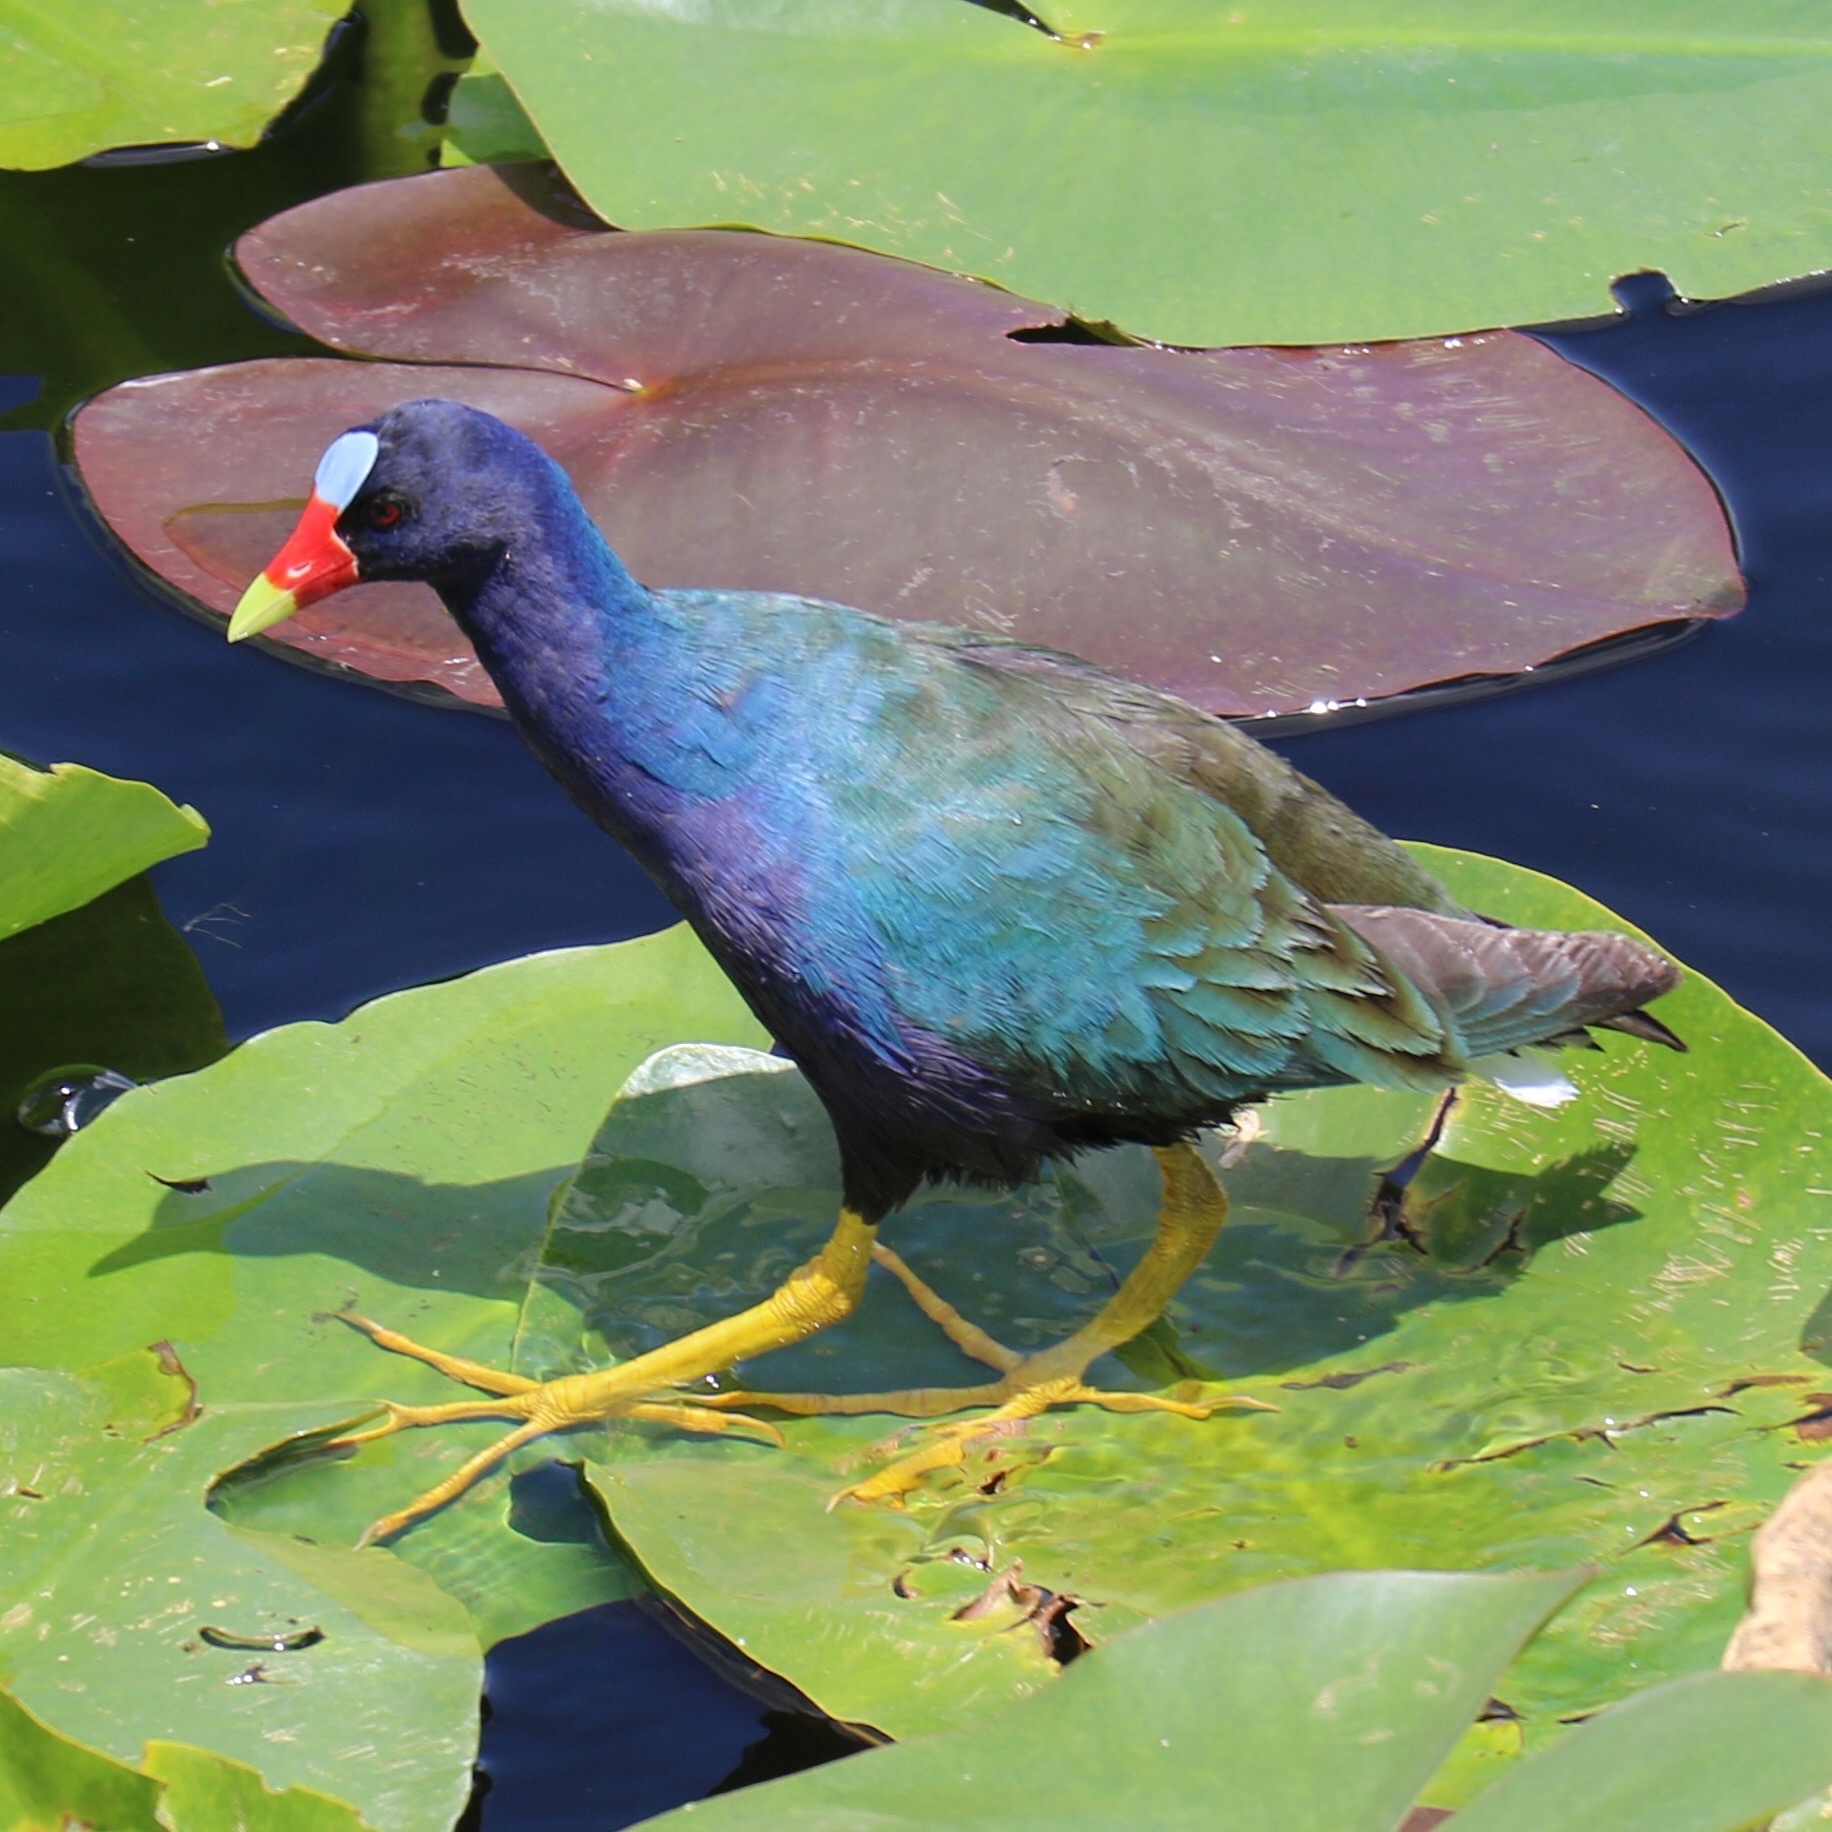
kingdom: Animalia
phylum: Chordata
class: Aves
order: Gruiformes
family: Rallidae
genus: Porphyrio
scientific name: Porphyrio martinica
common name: Purple gallinule
